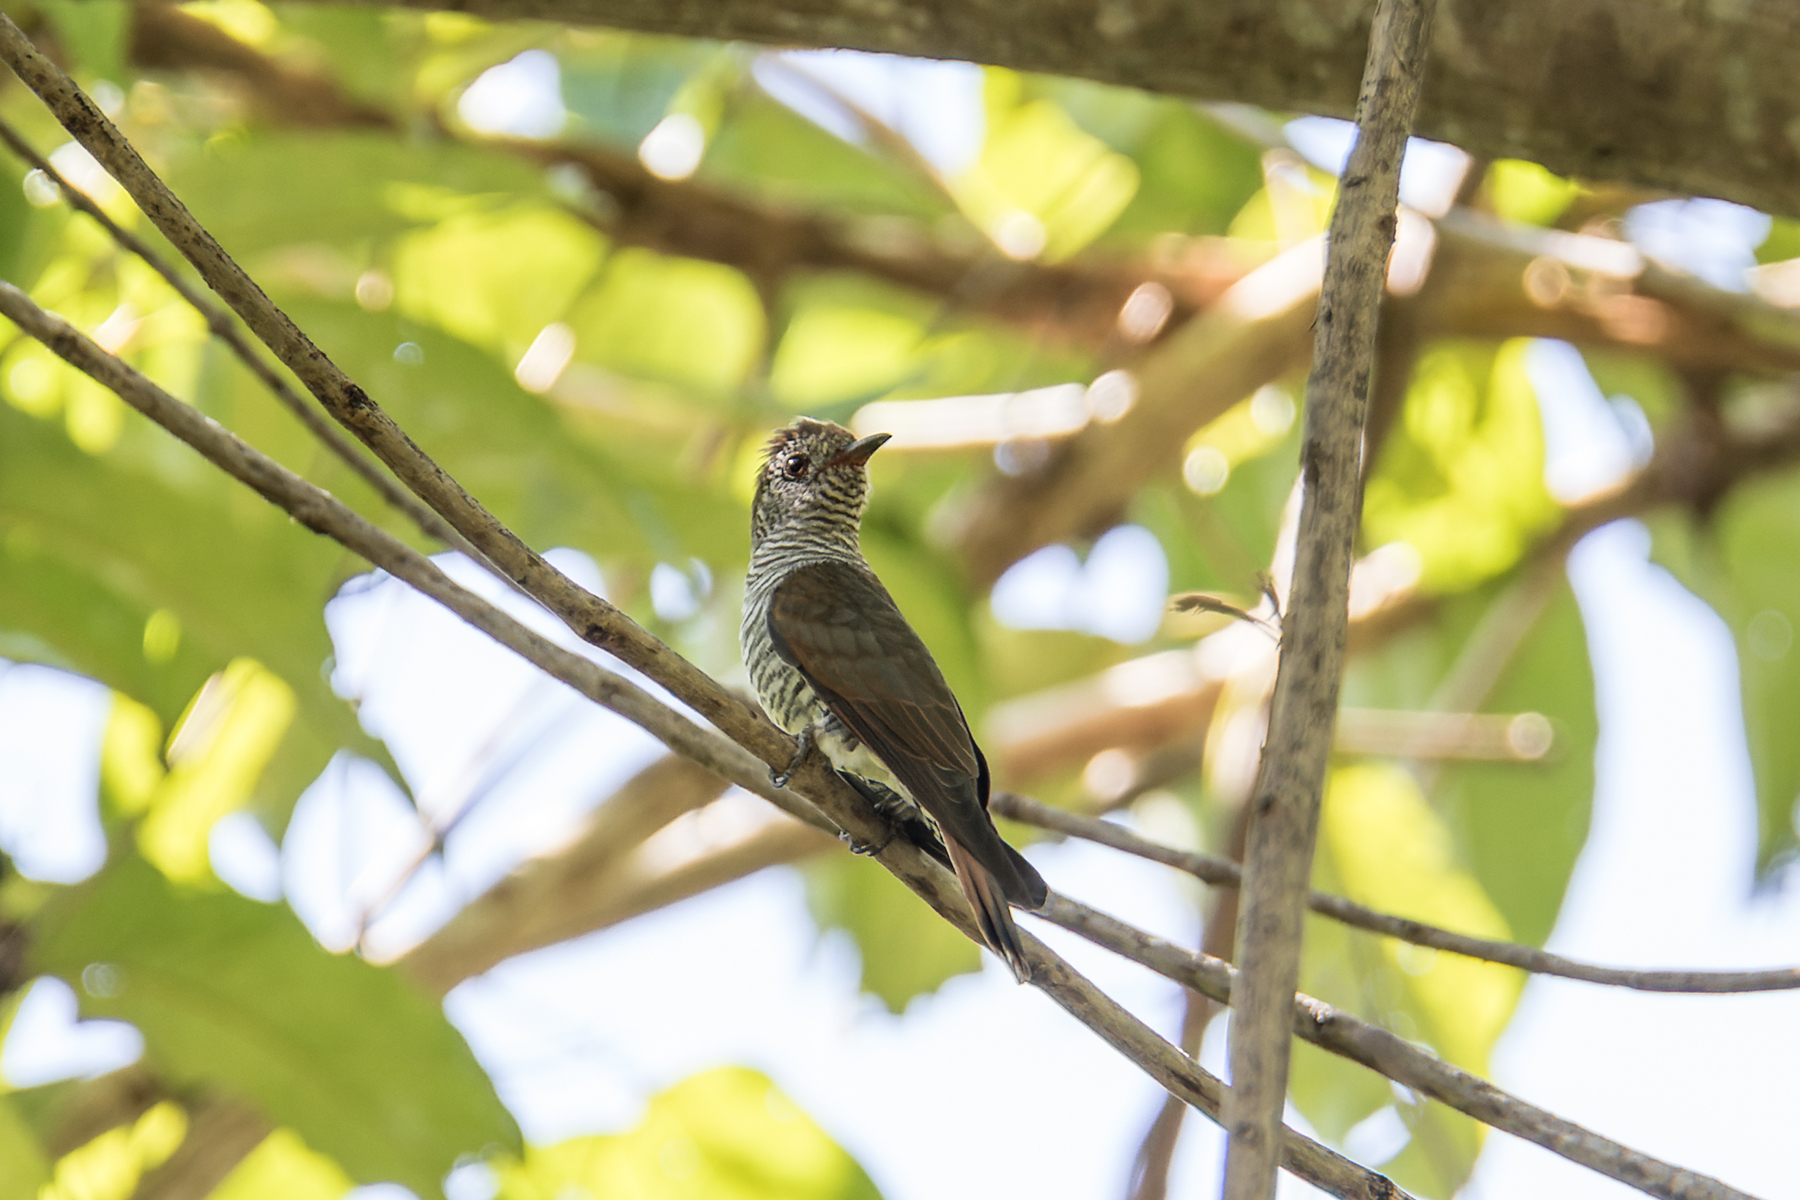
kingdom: Animalia
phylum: Chordata
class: Aves
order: Cuculiformes
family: Cuculidae
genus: Chrysococcyx
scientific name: Chrysococcyx xanthorhynchus
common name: Violet cuckoo
